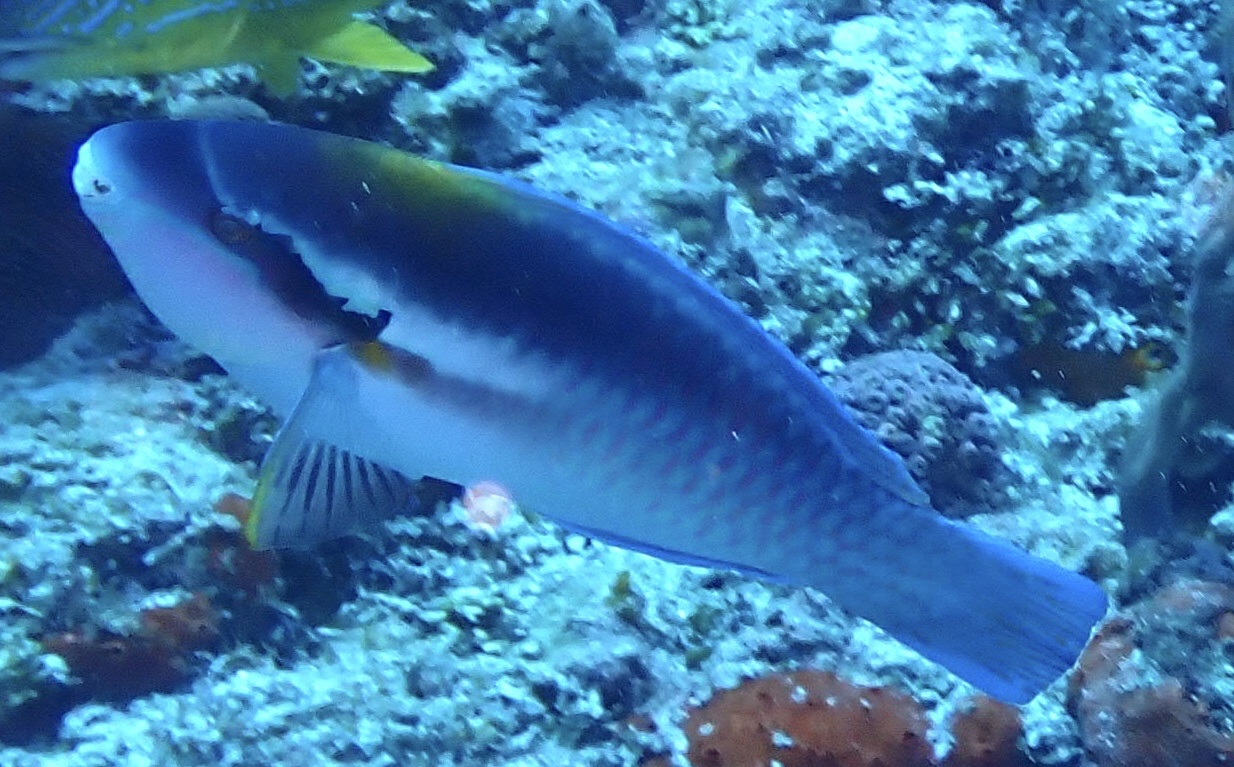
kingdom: Animalia
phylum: Chordata
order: Perciformes
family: Scaridae
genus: Scarus
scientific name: Scarus iseri
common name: Striped parrotfish
